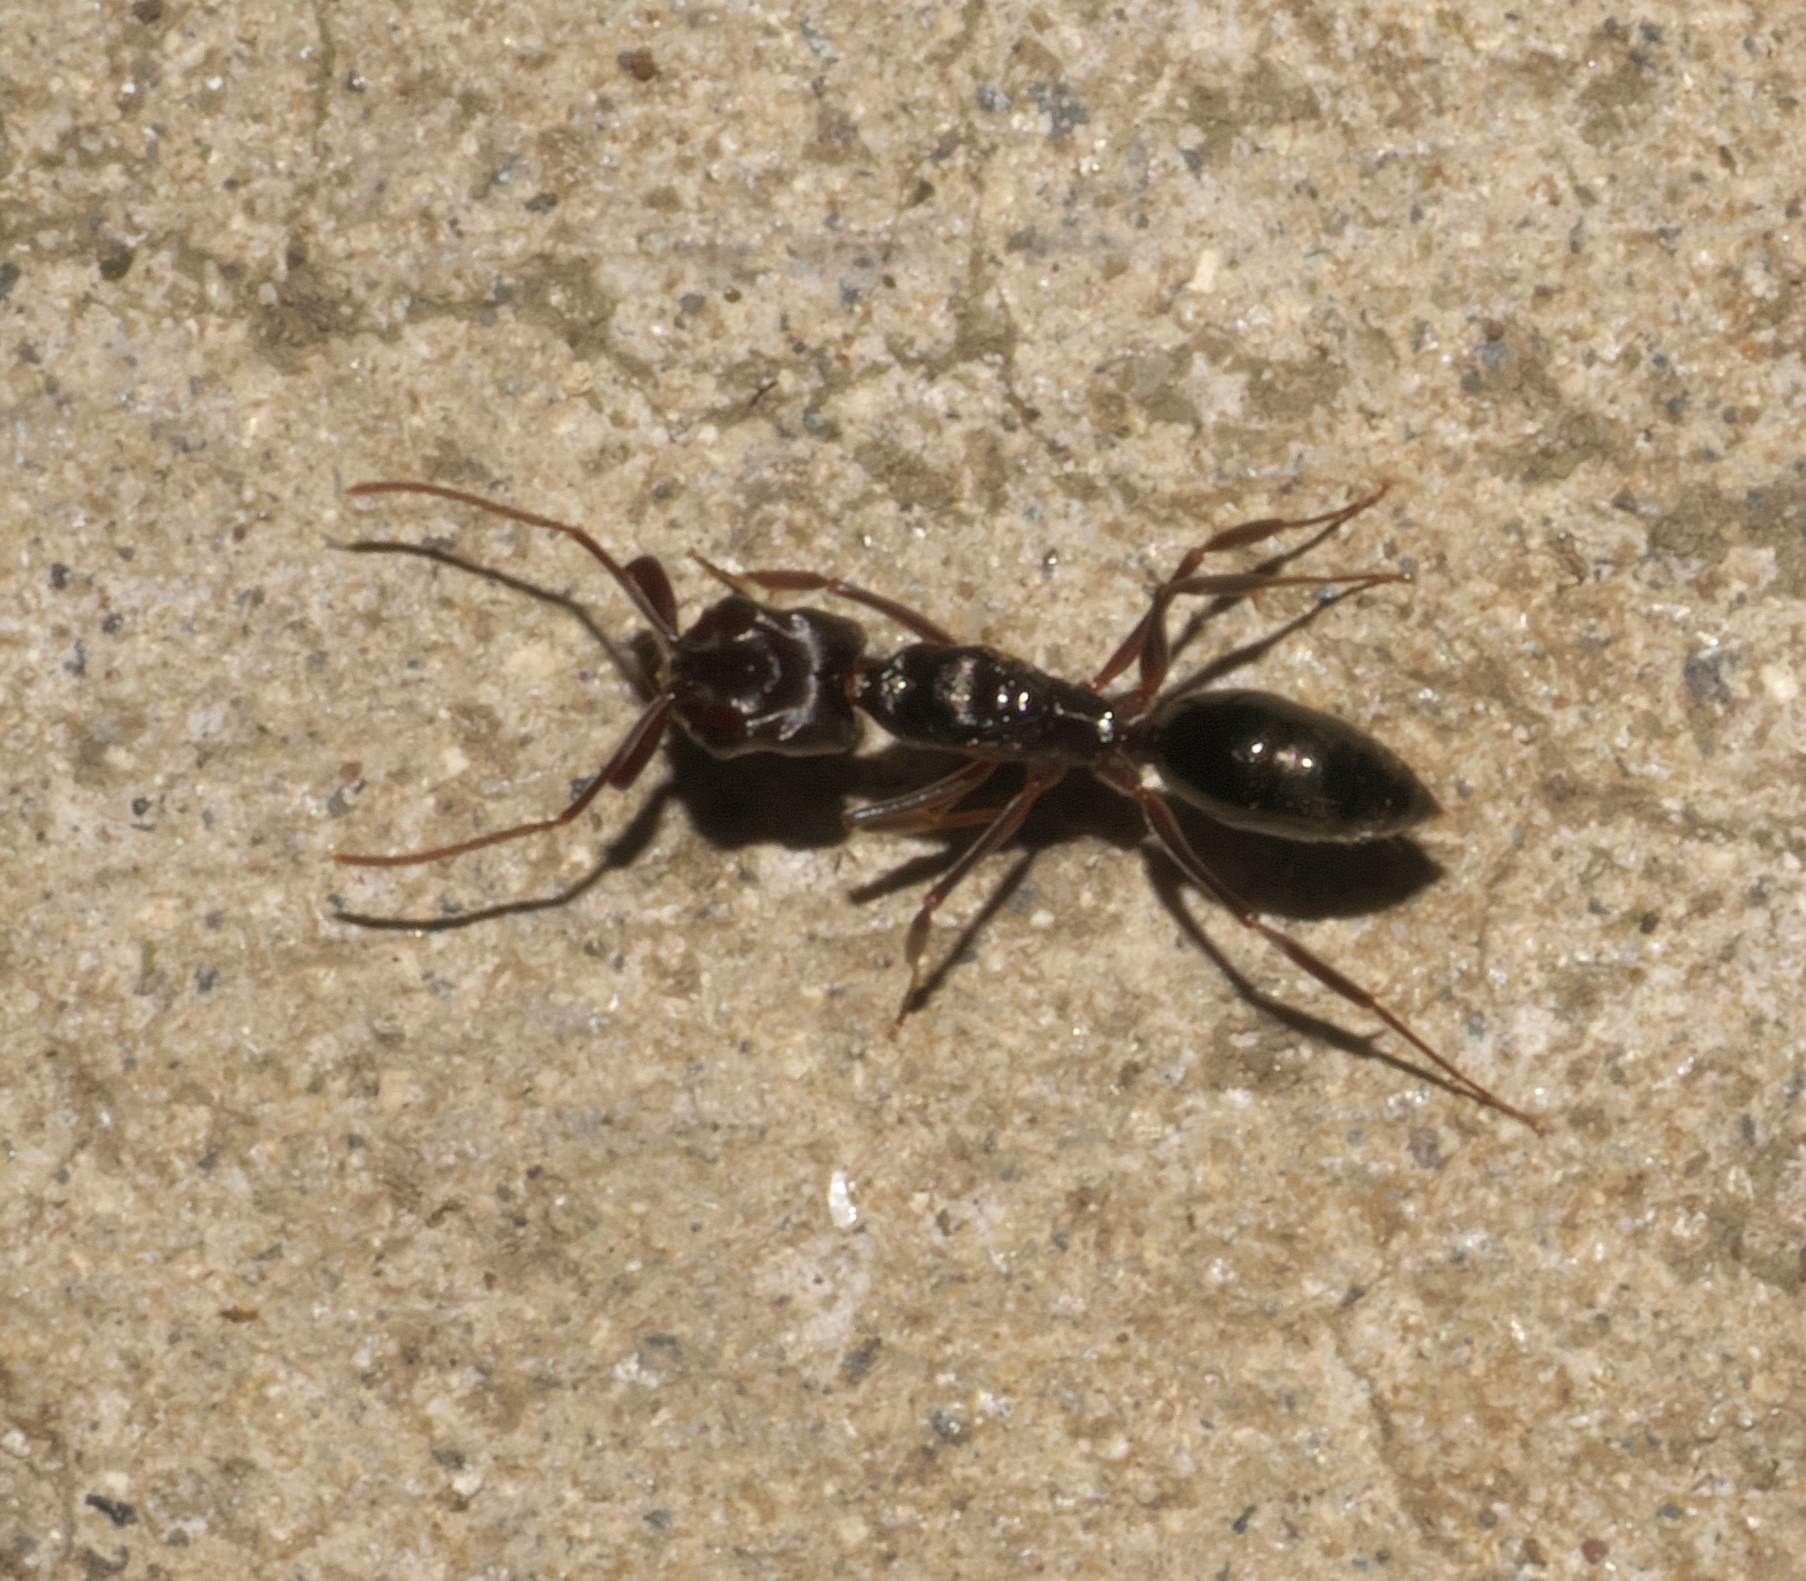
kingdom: Animalia
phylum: Arthropoda
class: Insecta
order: Hymenoptera
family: Formicidae
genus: Odontomachus
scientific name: Odontomachus simillimus
